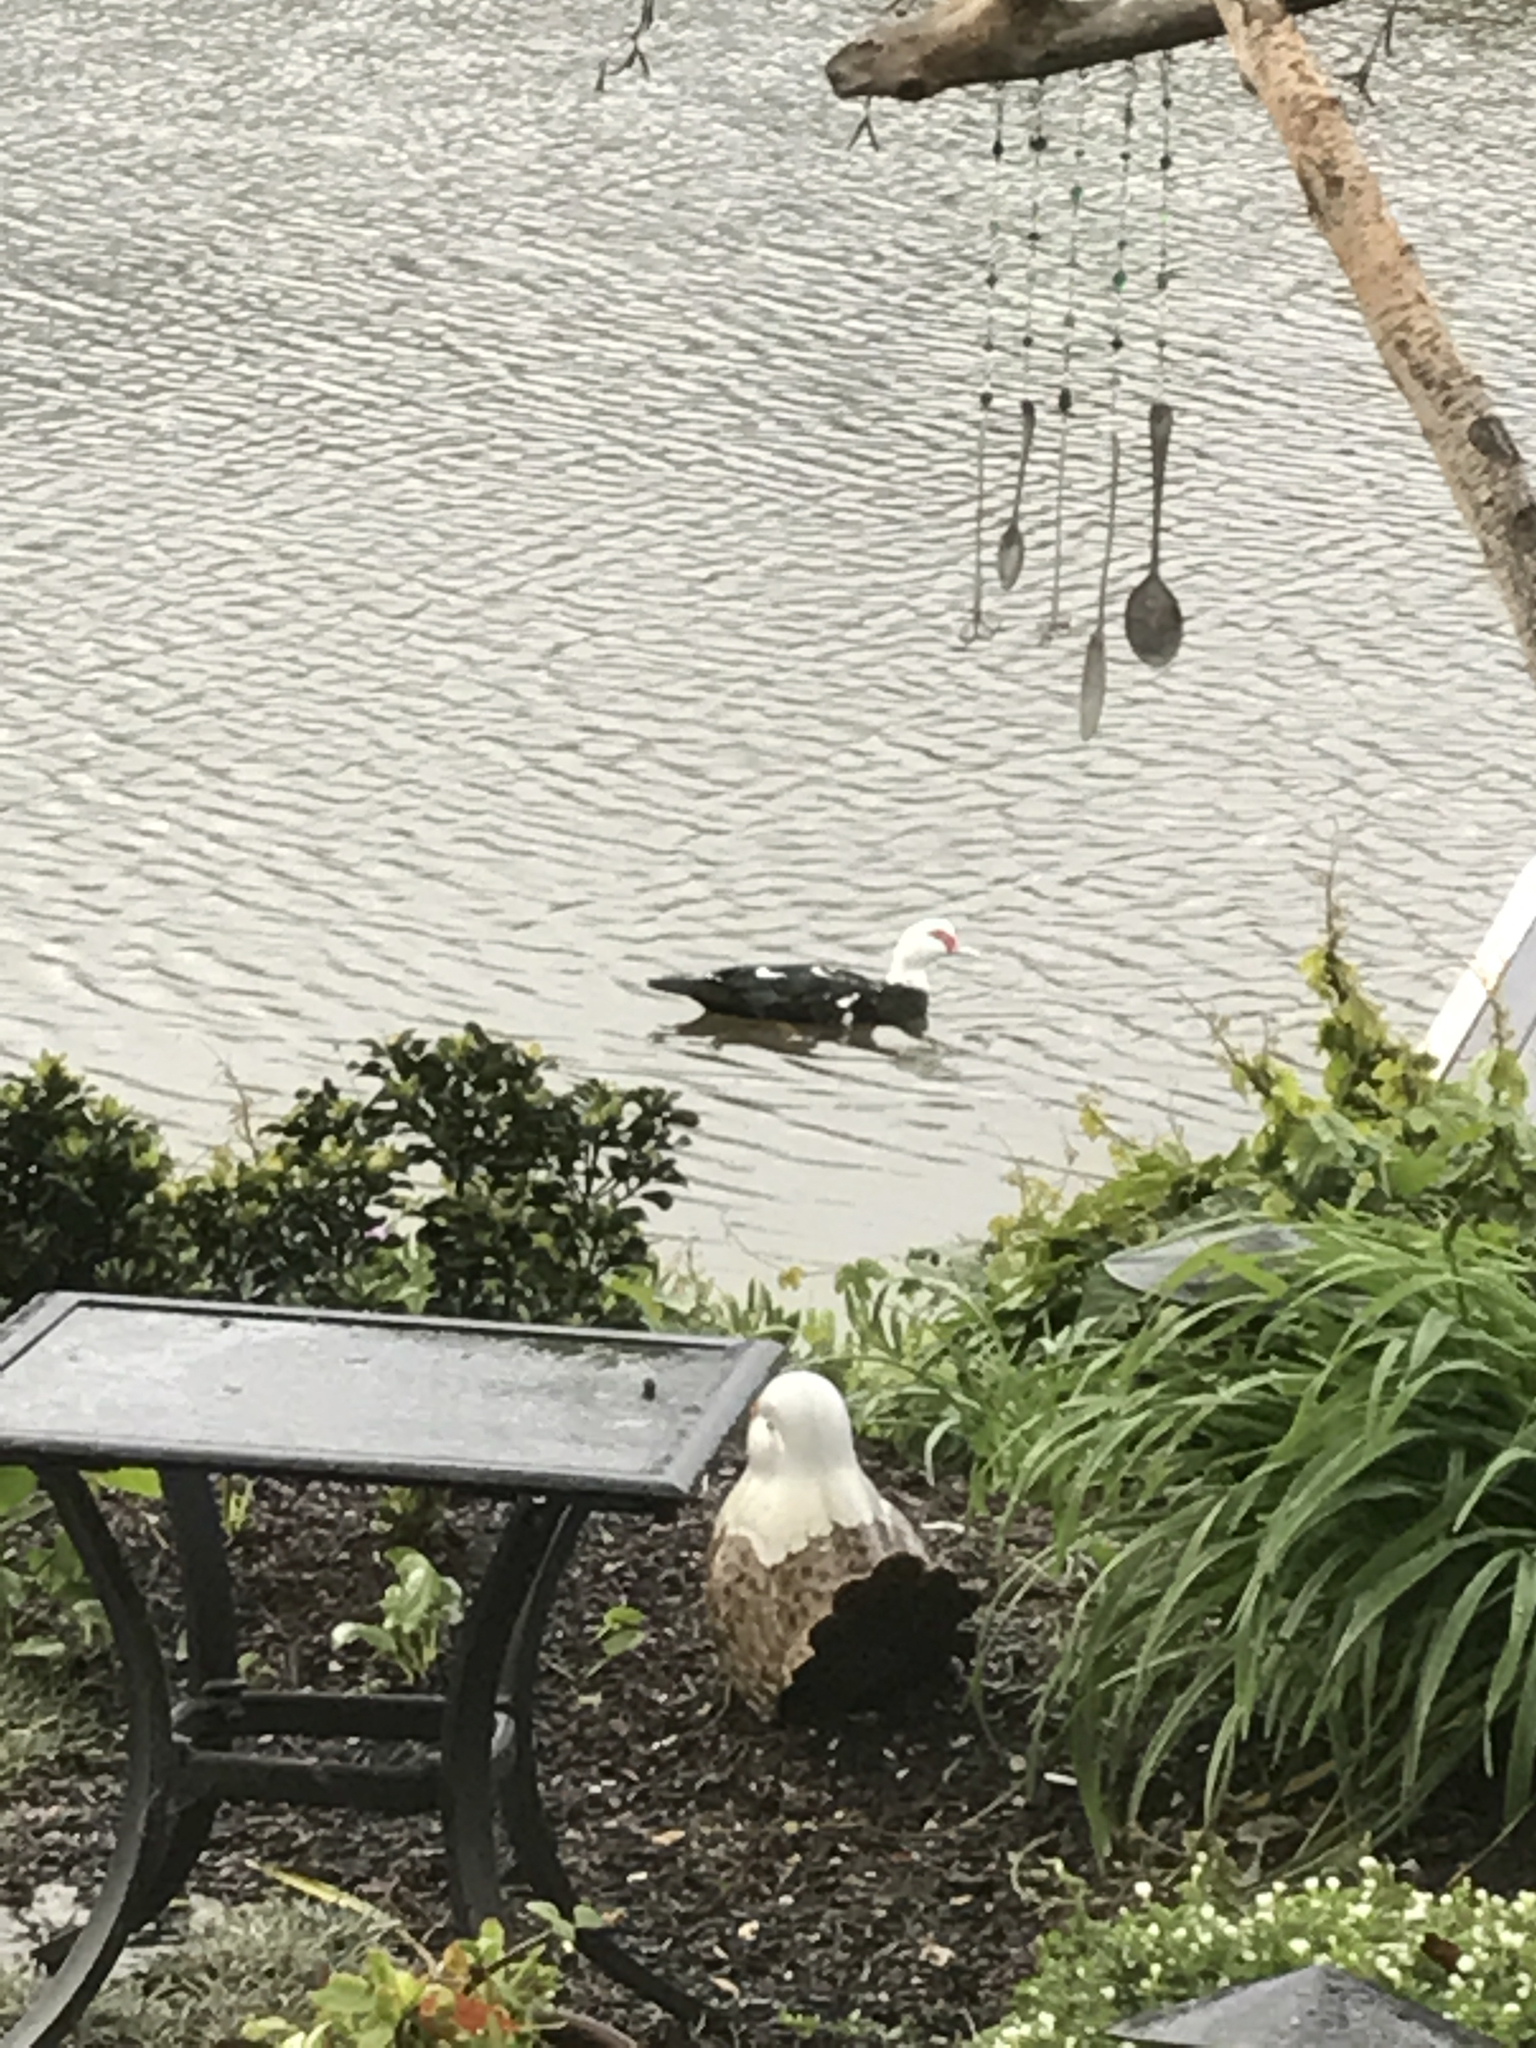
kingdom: Animalia
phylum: Chordata
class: Aves
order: Anseriformes
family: Anatidae
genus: Cairina
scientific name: Cairina moschata
